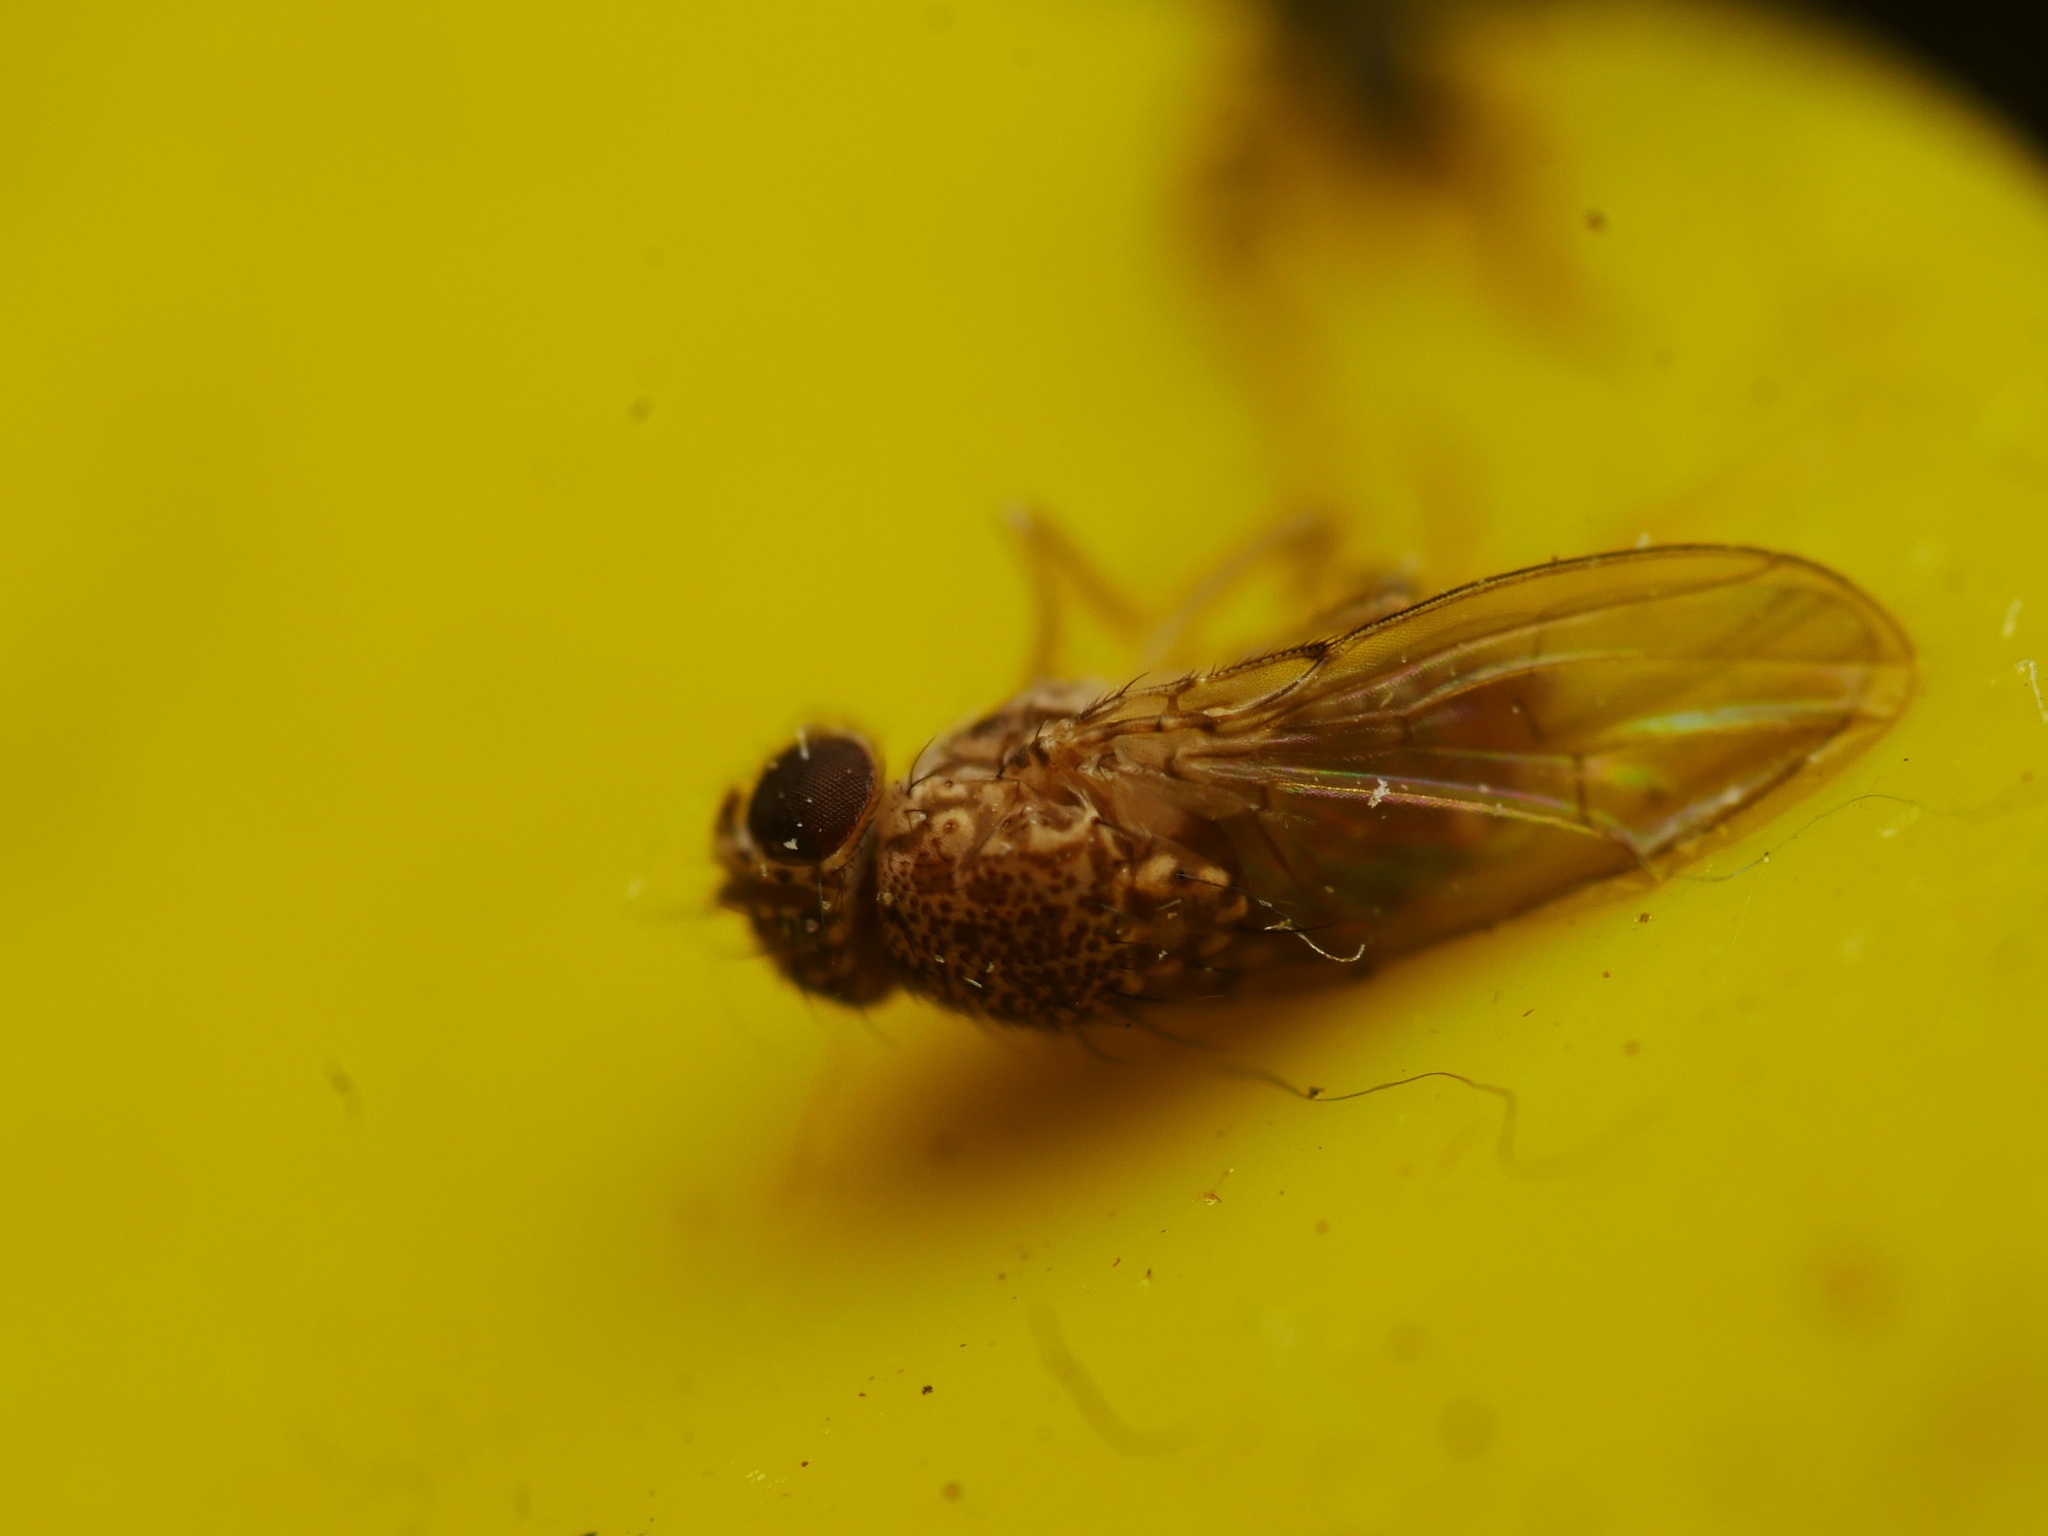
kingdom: Animalia
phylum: Arthropoda
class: Insecta
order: Diptera
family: Drosophilidae
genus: Drosophila
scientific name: Drosophila repleta
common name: Pomace fly
